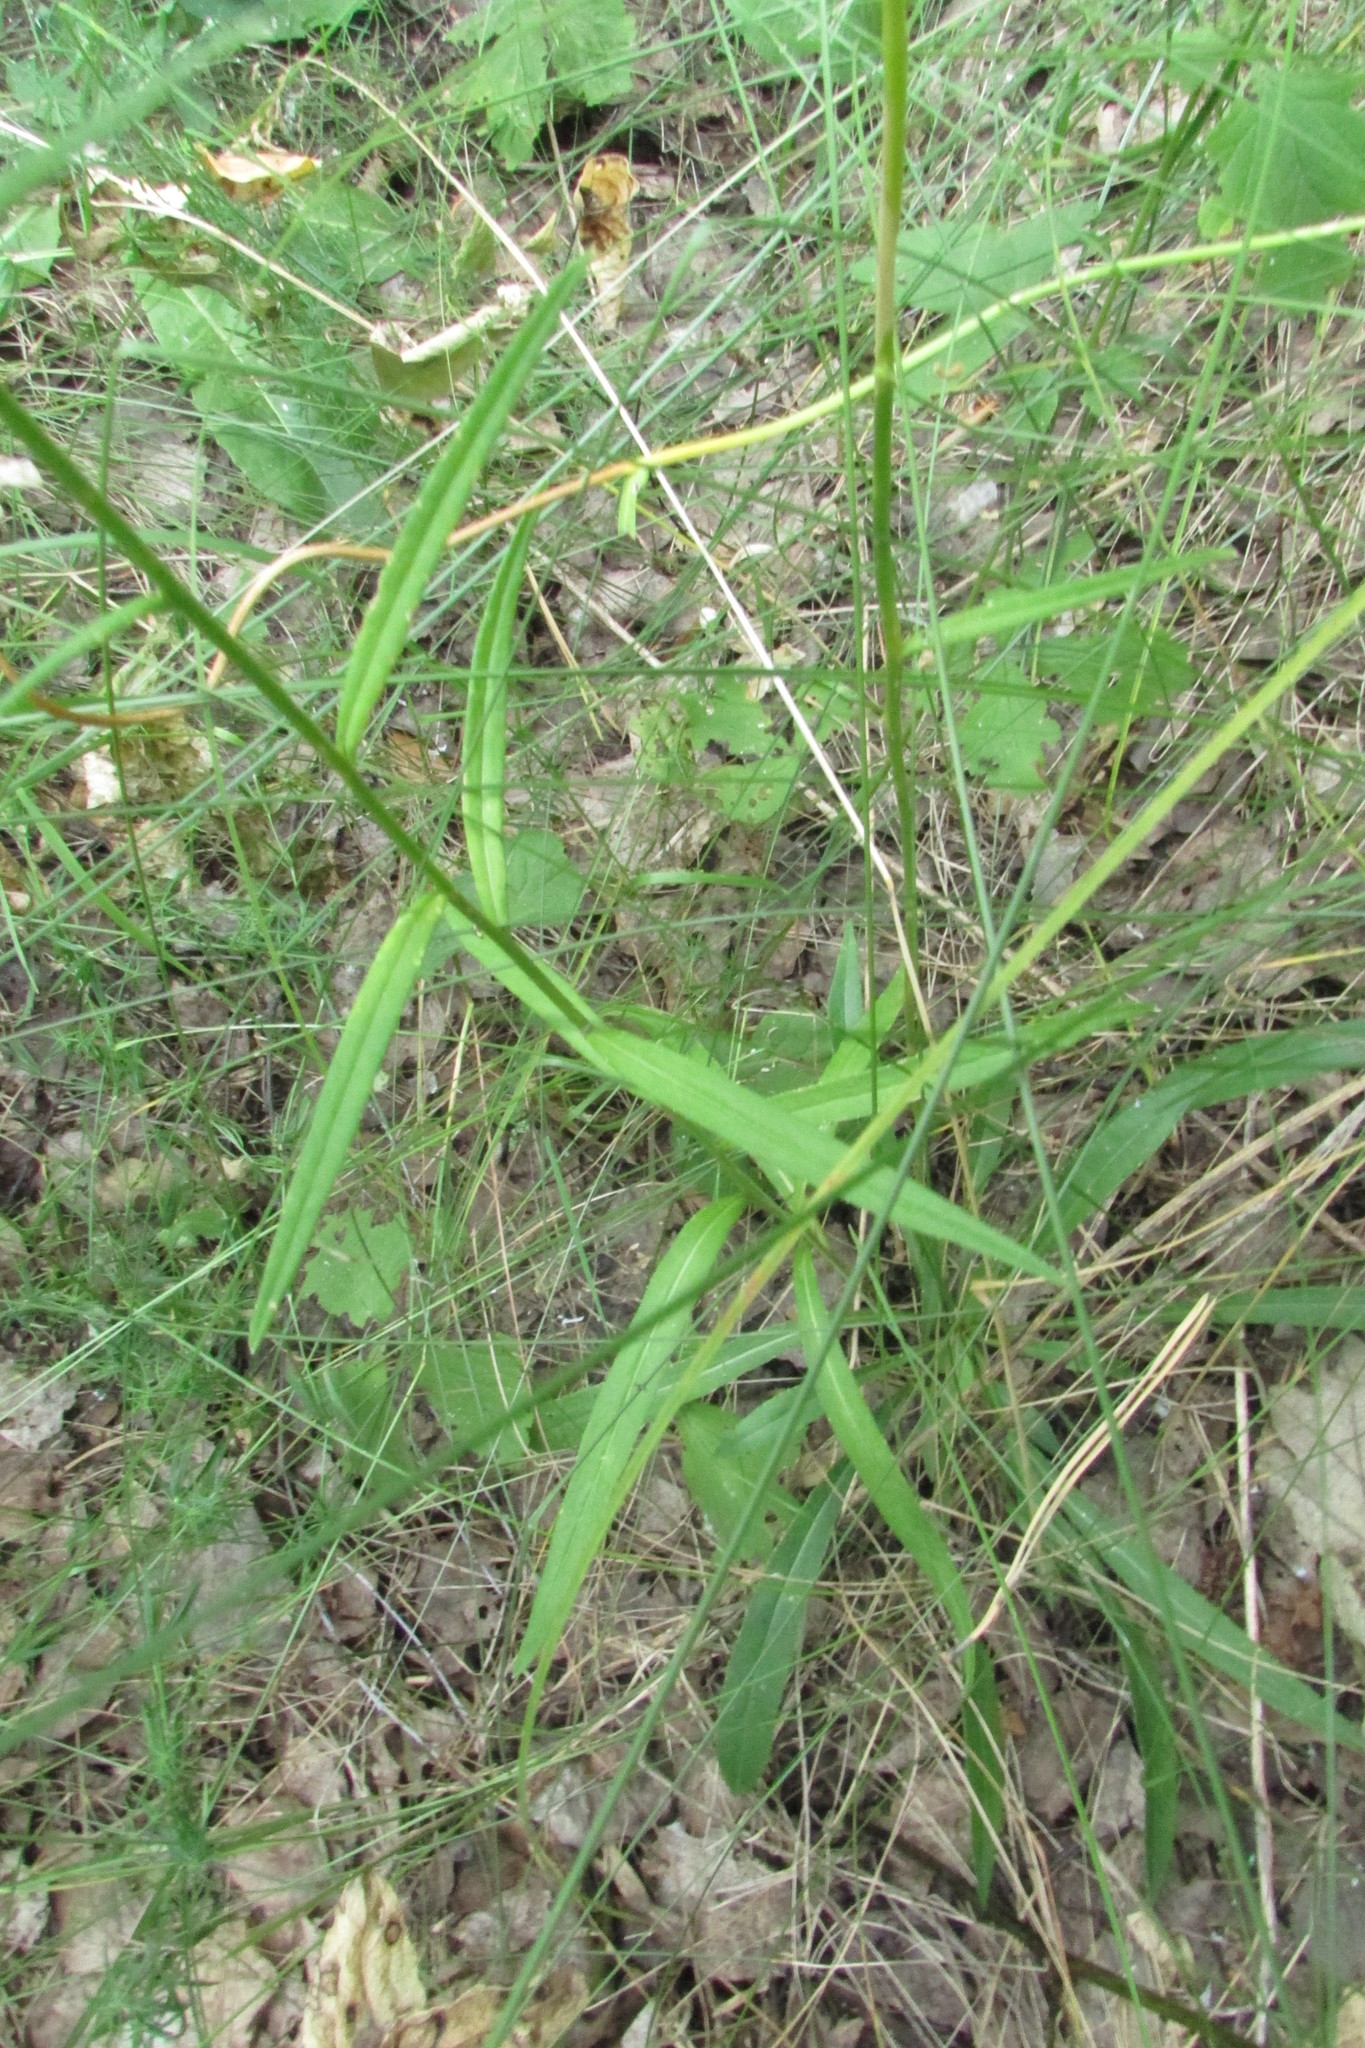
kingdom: Plantae
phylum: Tracheophyta
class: Magnoliopsida
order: Asterales
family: Campanulaceae
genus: Campanula
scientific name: Campanula persicifolia
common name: Peach-leaved bellflower
